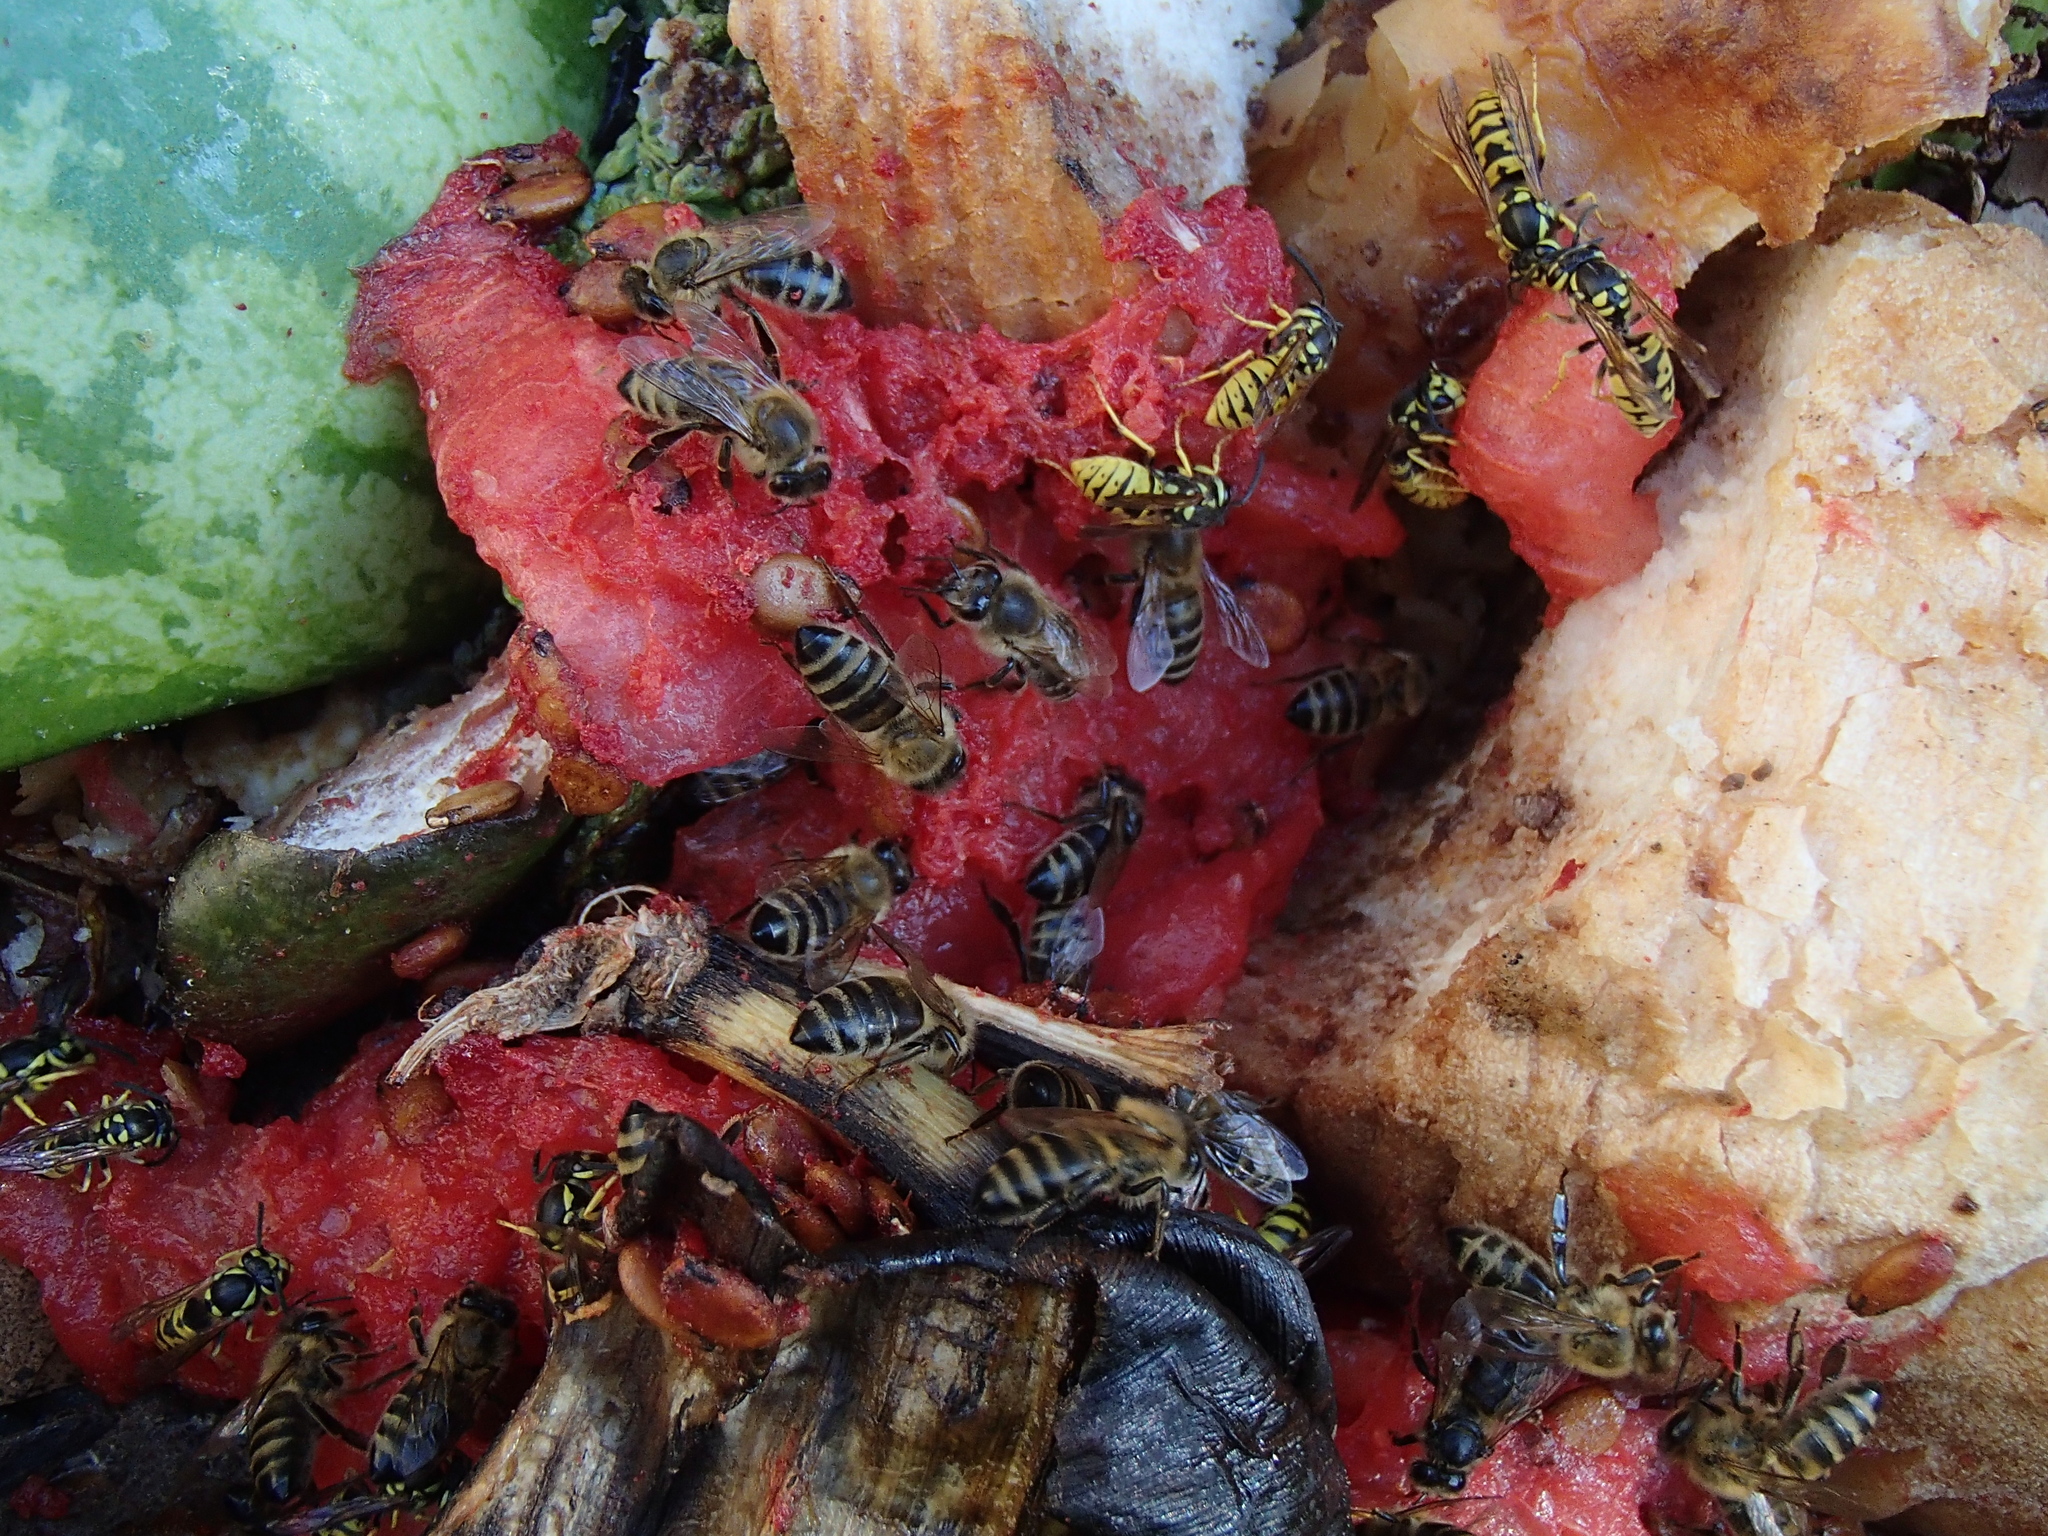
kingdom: Animalia
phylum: Arthropoda
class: Insecta
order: Hymenoptera
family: Apidae
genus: Apis
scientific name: Apis mellifera
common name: Honey bee
